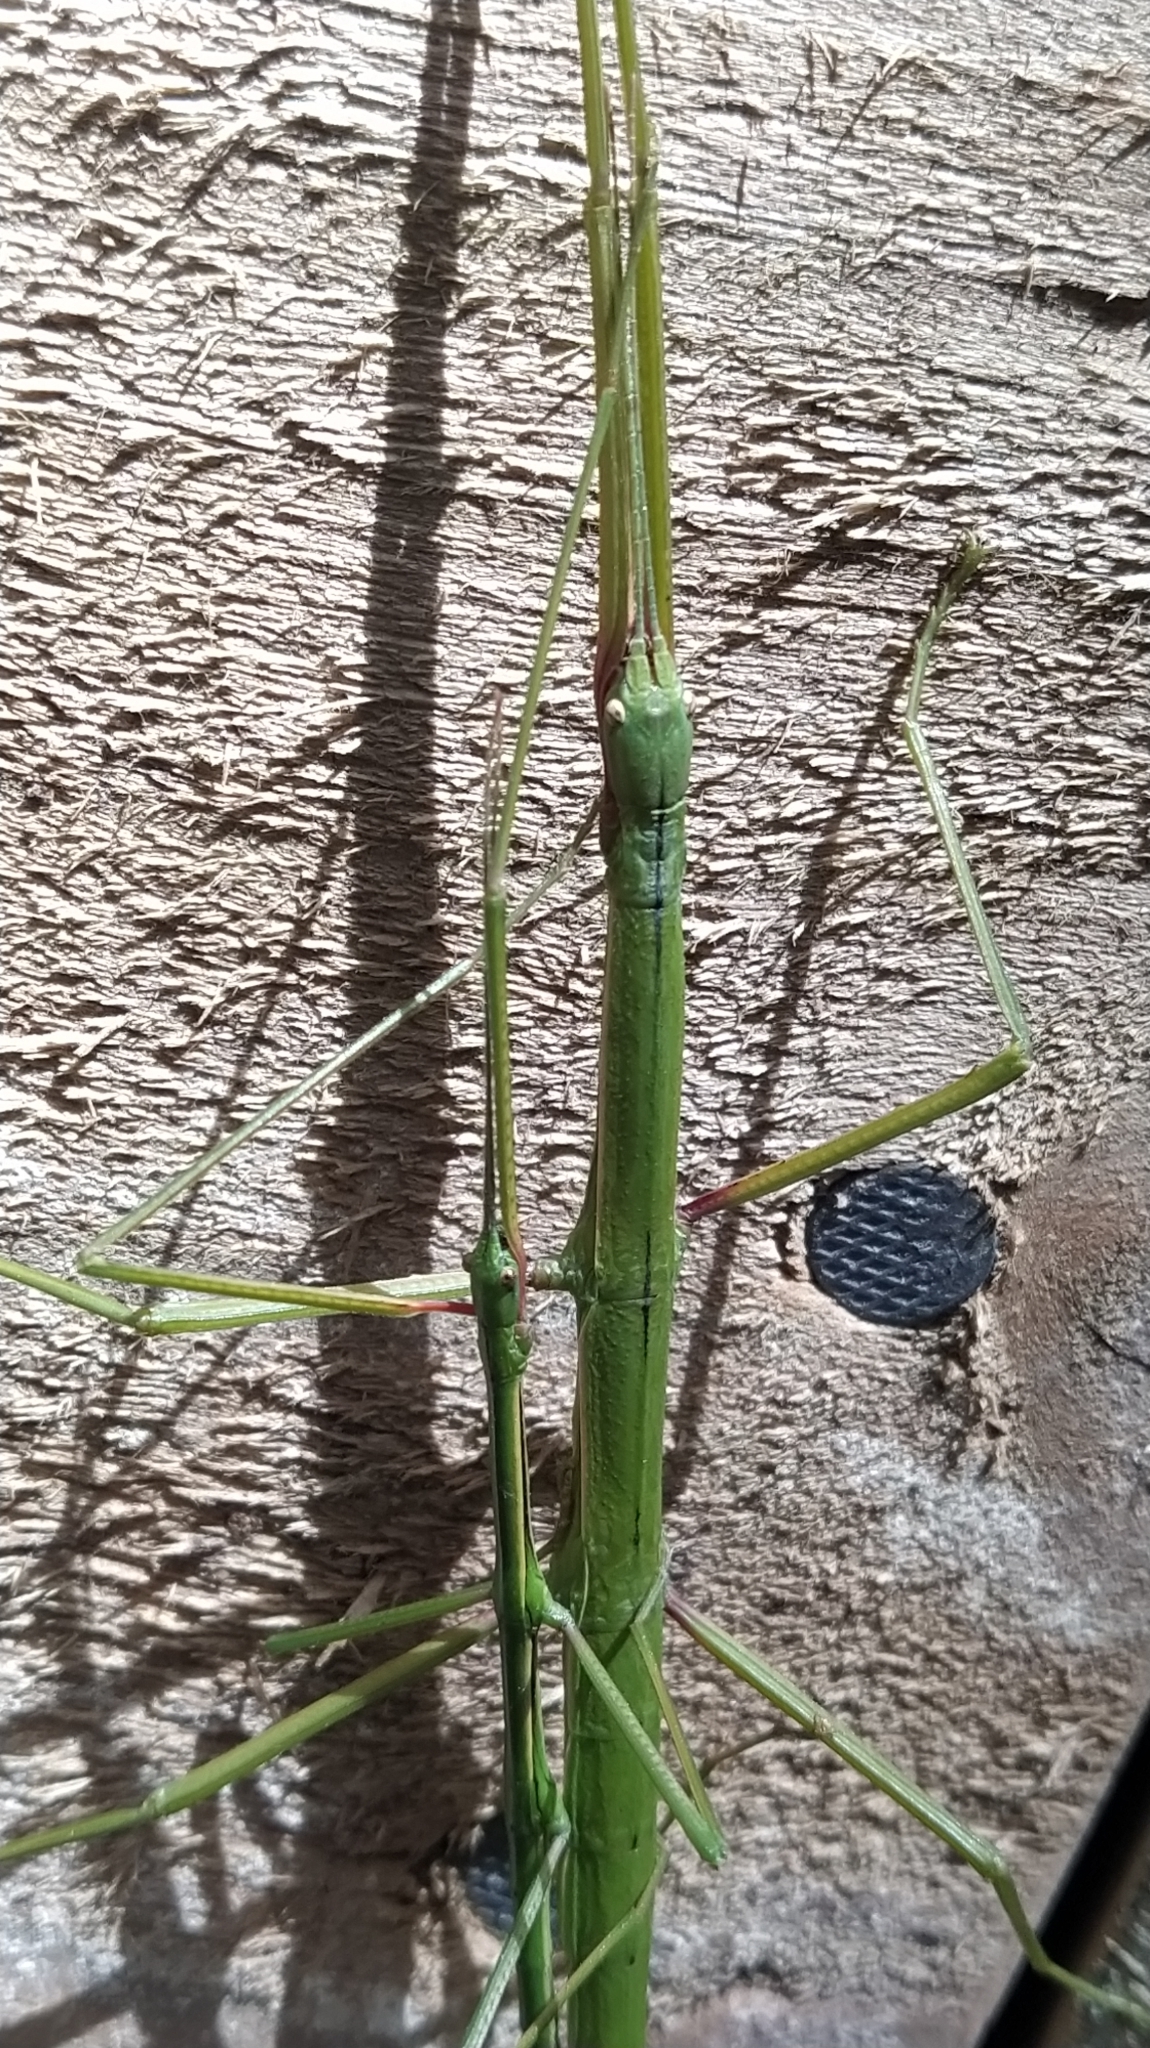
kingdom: Animalia
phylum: Arthropoda
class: Insecta
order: Phasmida
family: Phasmatidae
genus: Clitarchus
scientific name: Clitarchus hookeri
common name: Smooth stick insect
